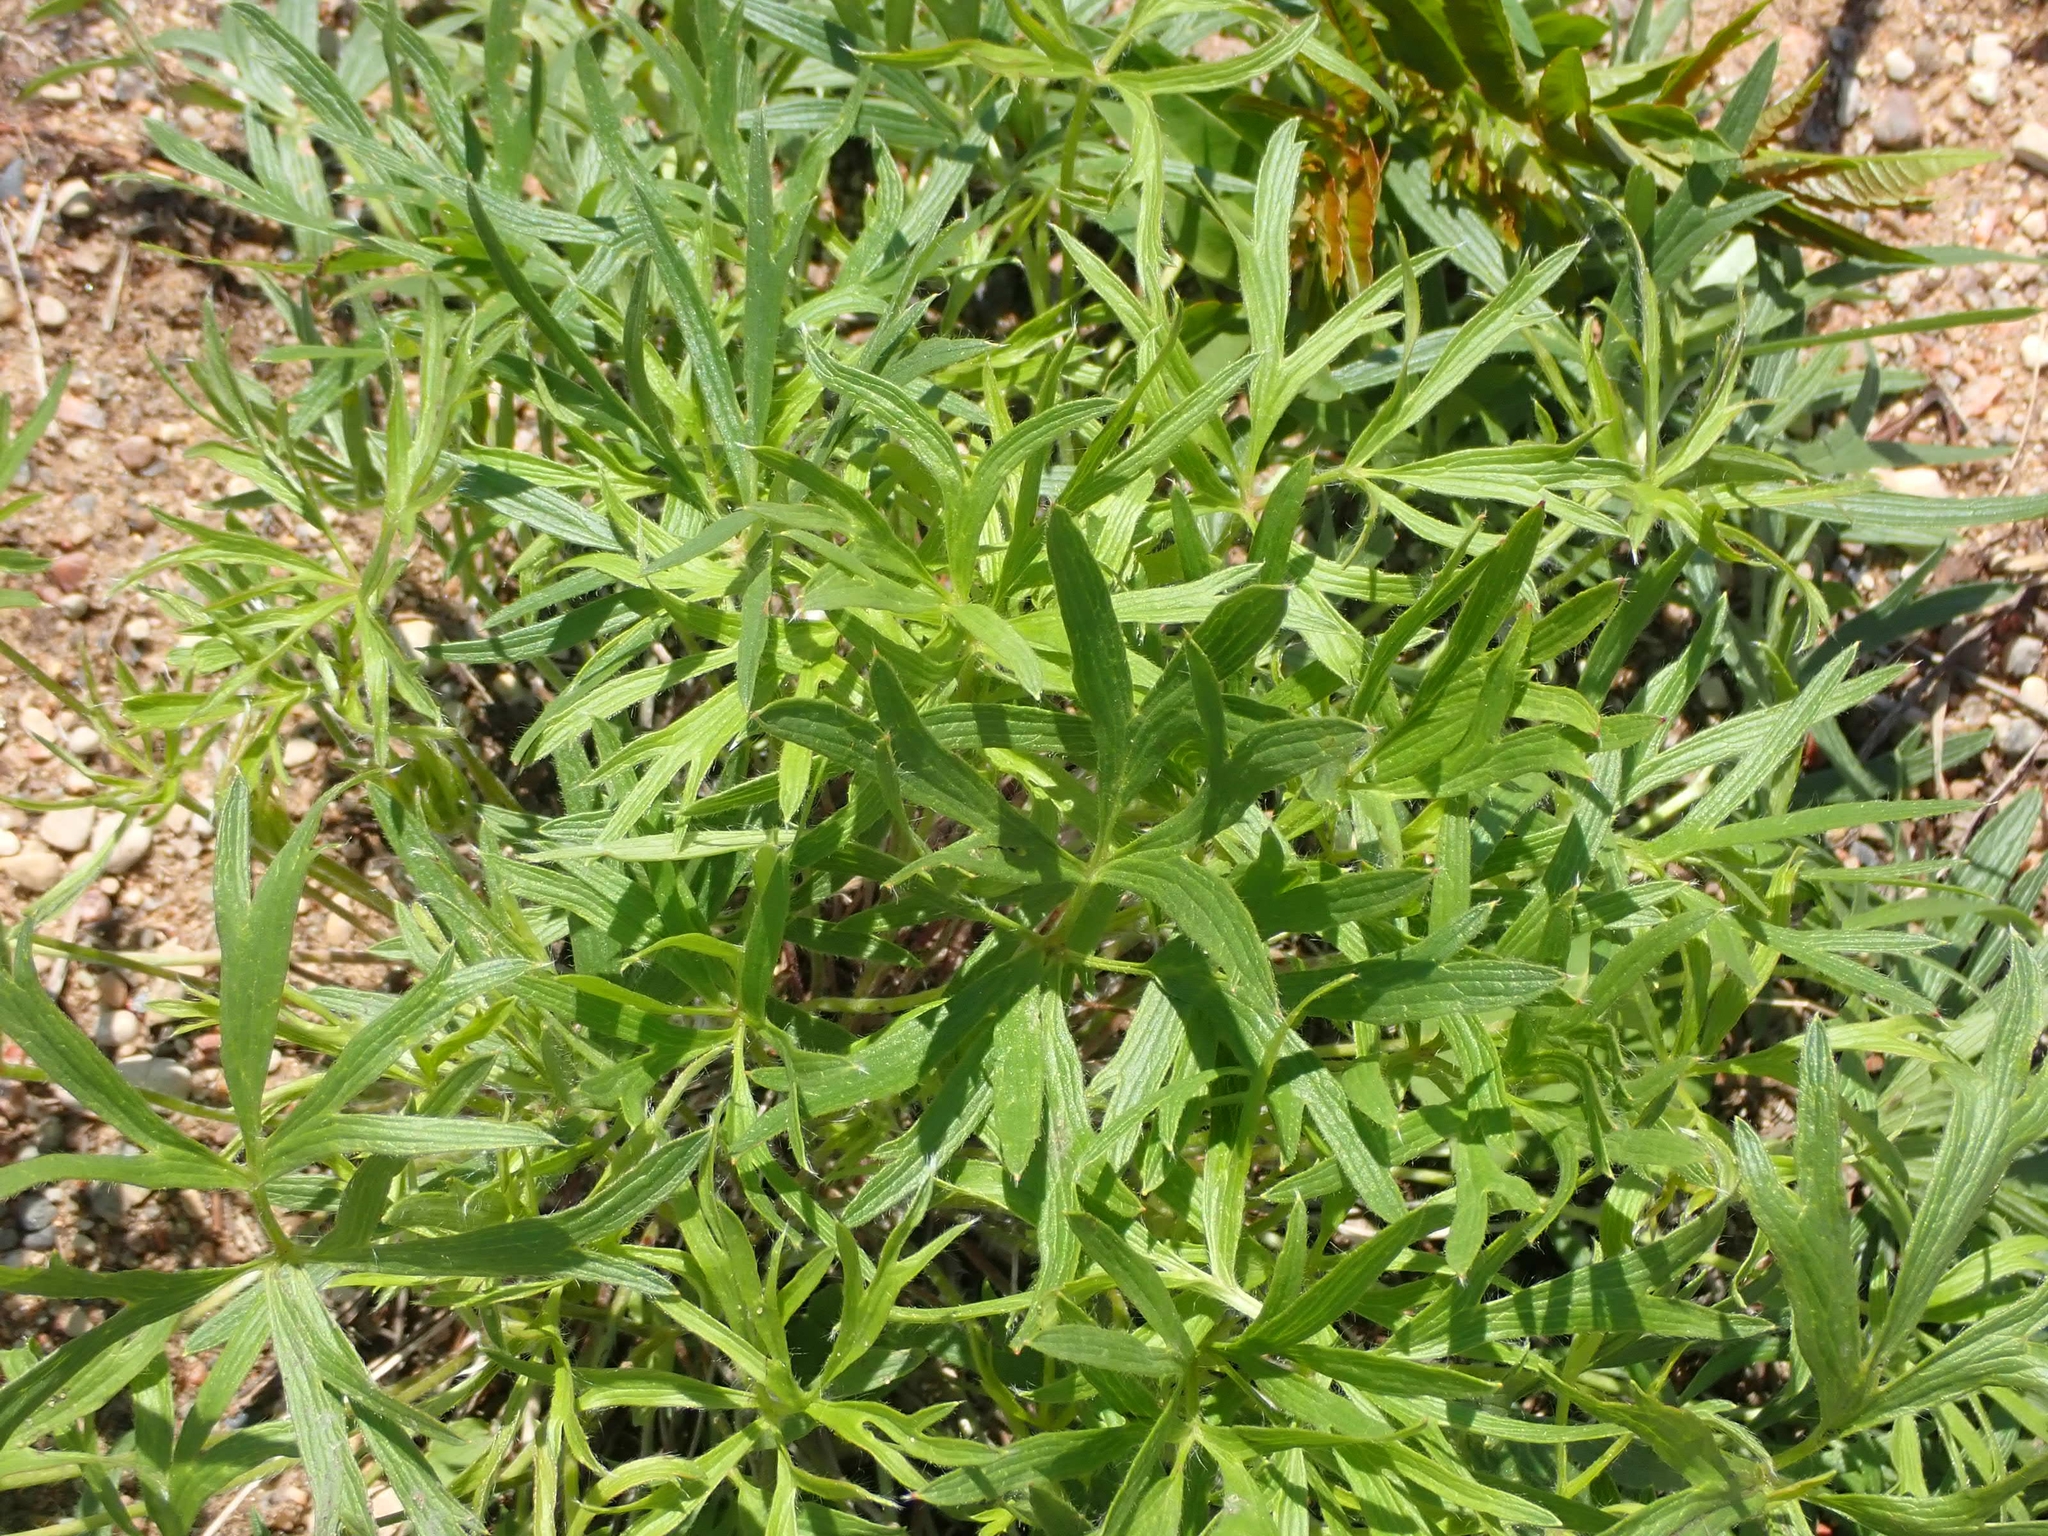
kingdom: Plantae
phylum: Tracheophyta
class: Magnoliopsida
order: Ranunculales
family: Ranunculaceae
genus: Pulsatilla
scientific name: Pulsatilla nuttalliana
